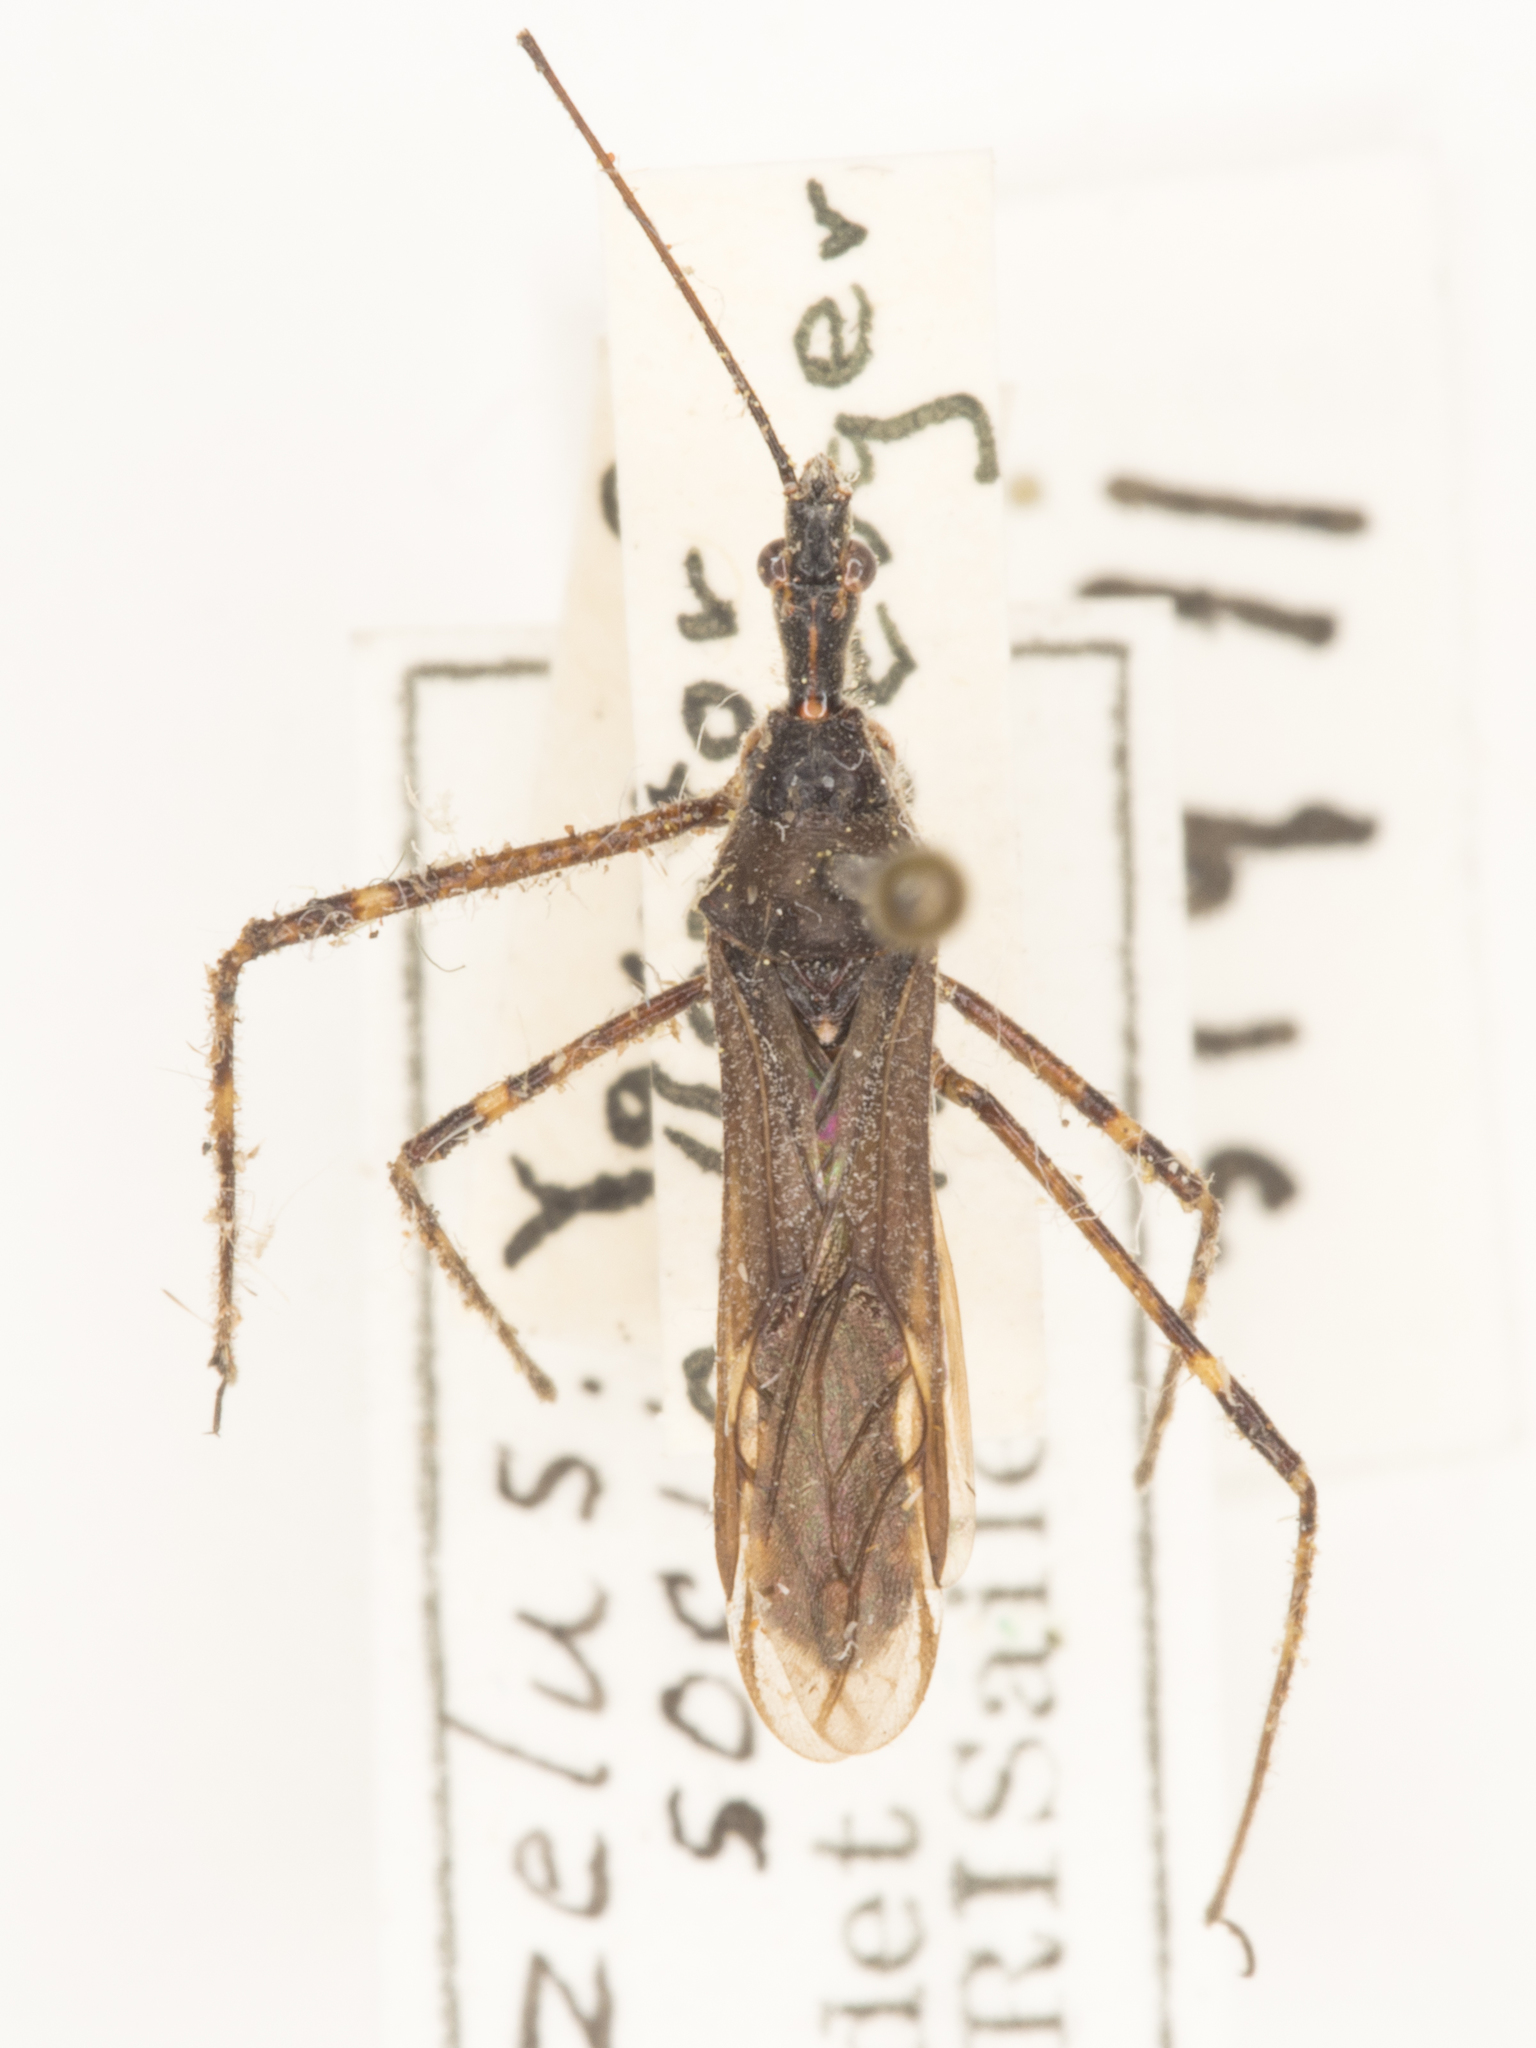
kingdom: Animalia
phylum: Arthropoda
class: Insecta
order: Hemiptera
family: Reduviidae
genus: Zelus
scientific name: Zelus tetracanthus
